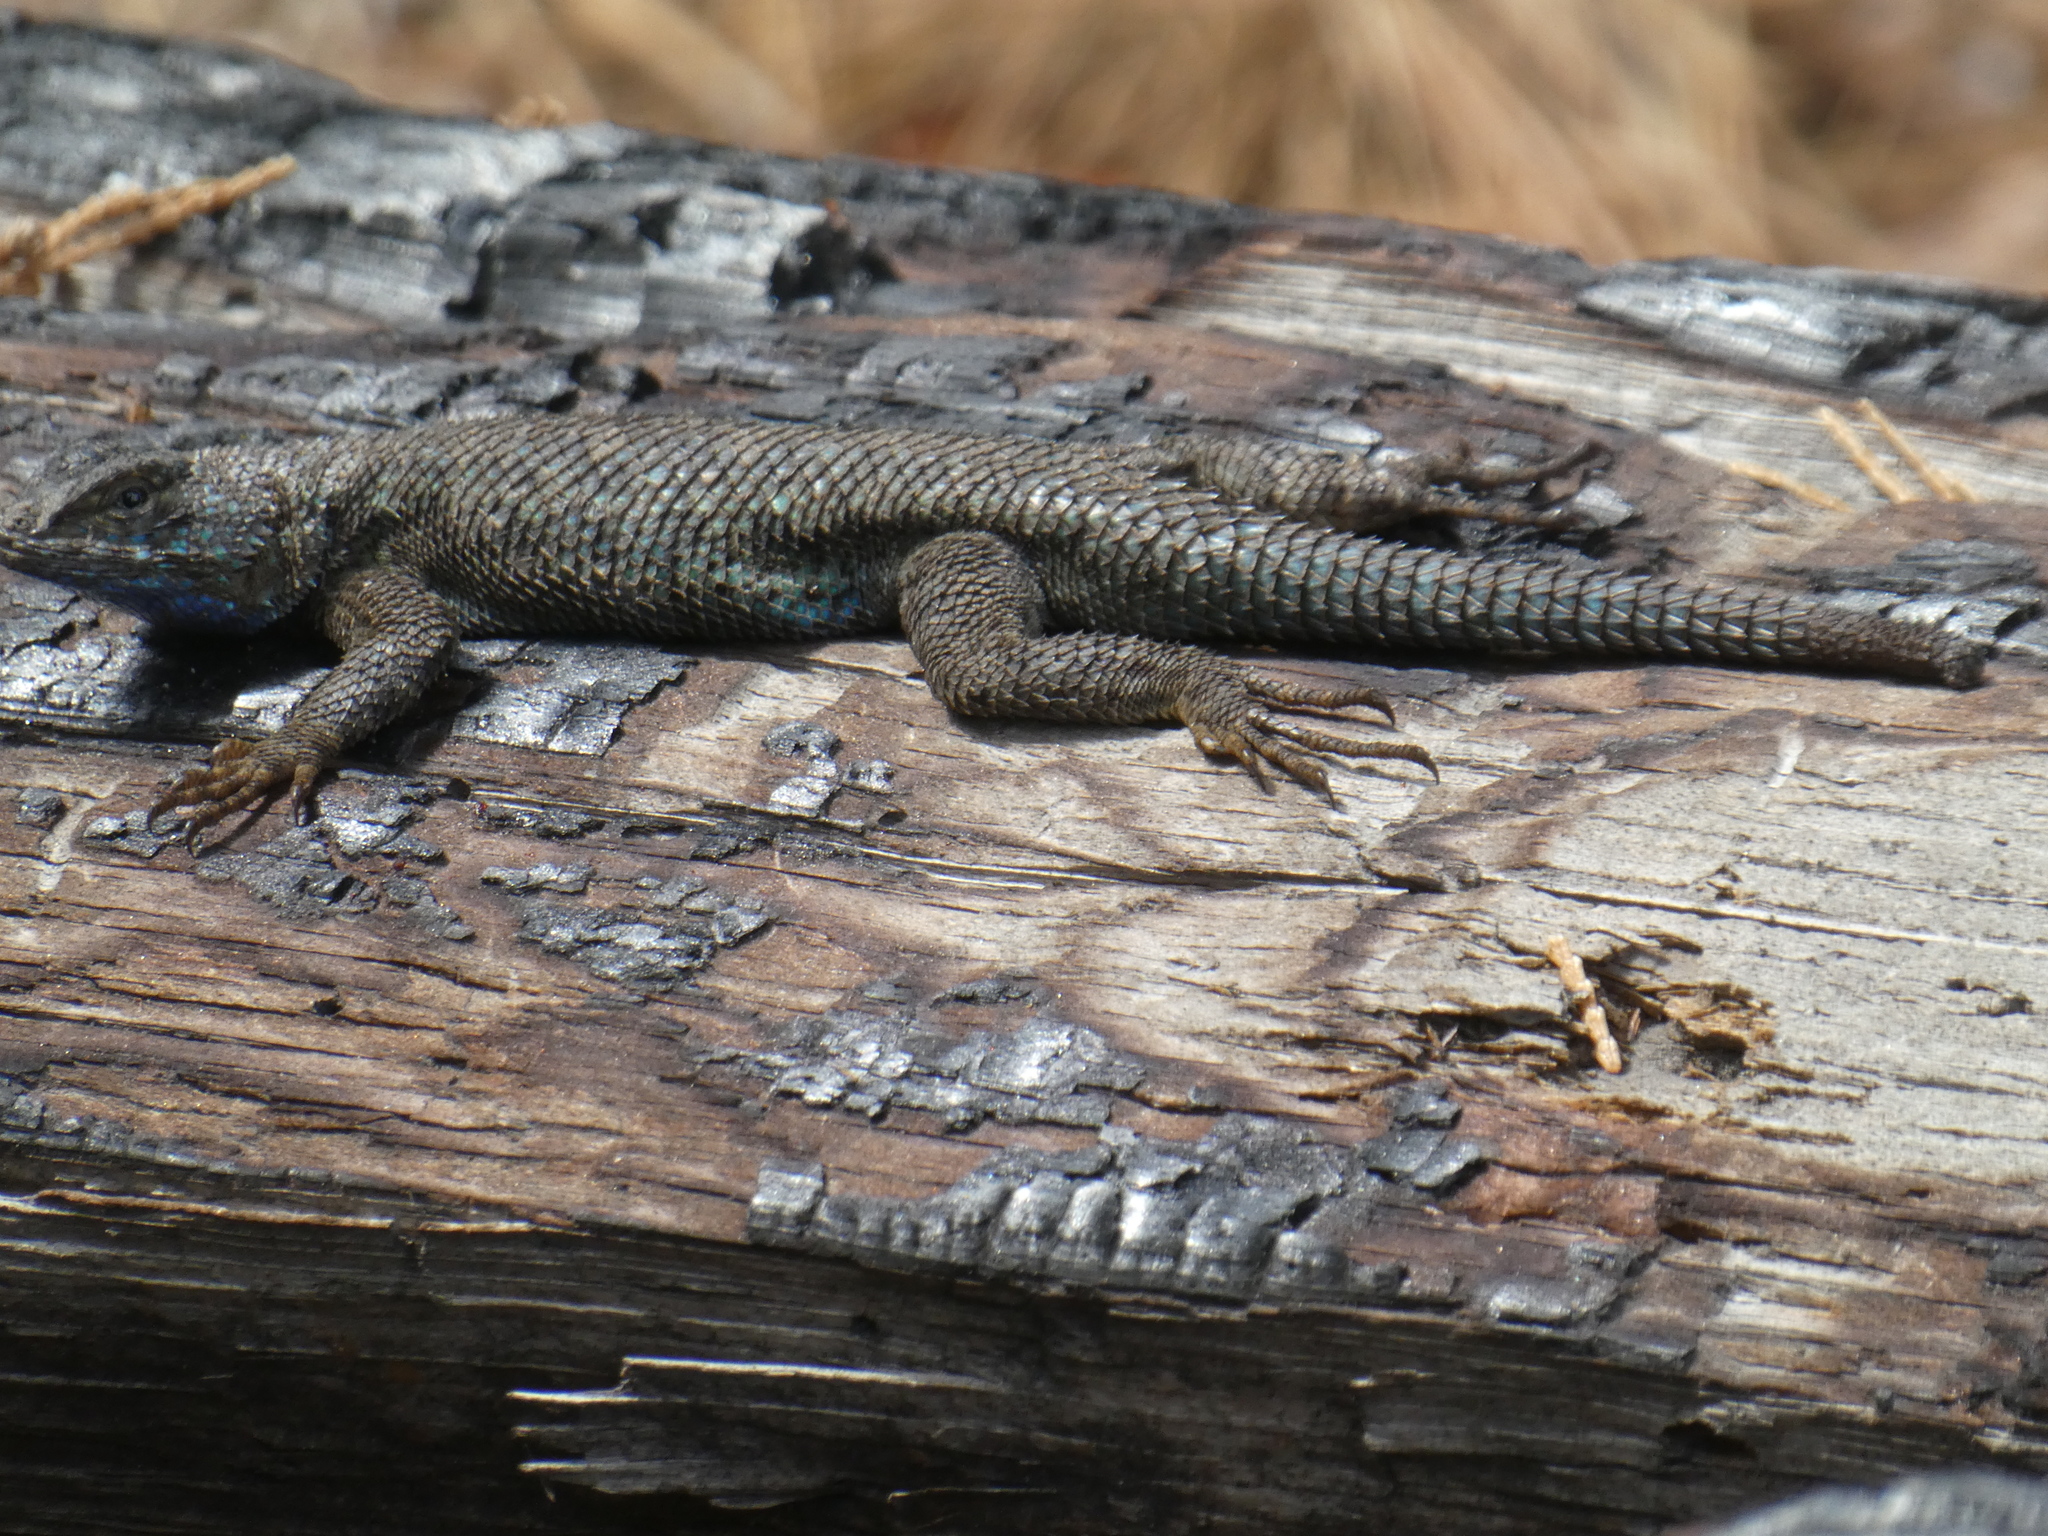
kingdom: Animalia
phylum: Chordata
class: Squamata
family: Phrynosomatidae
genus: Sceloporus
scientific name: Sceloporus occidentalis
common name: Western fence lizard
